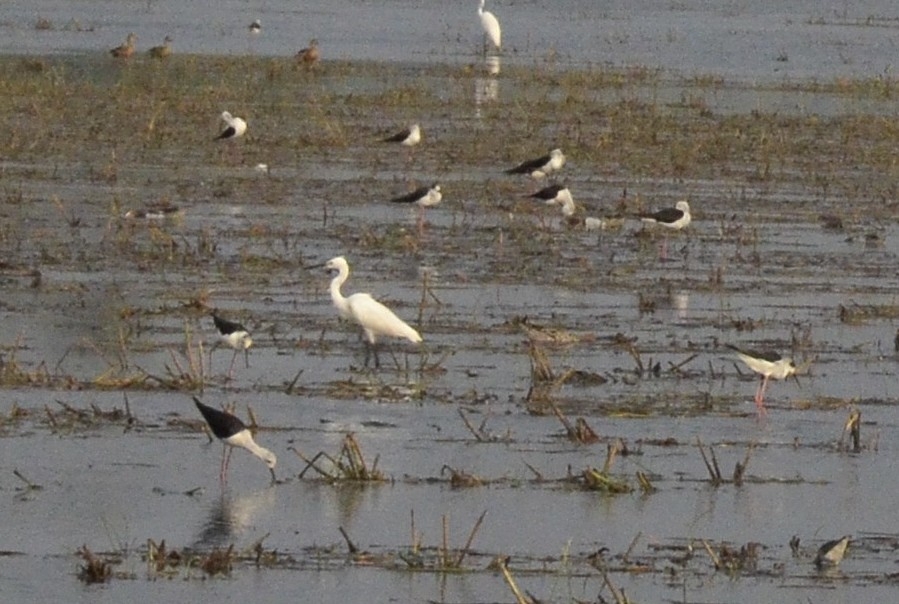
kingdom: Animalia
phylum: Chordata
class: Aves
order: Charadriiformes
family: Recurvirostridae
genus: Himantopus
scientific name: Himantopus himantopus
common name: Black-winged stilt
